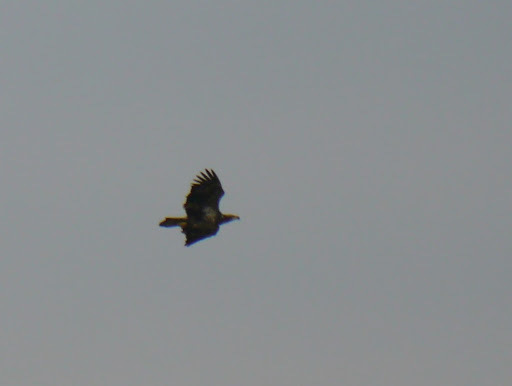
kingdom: Animalia
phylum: Chordata
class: Aves
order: Accipitriformes
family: Accipitridae
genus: Haliaeetus
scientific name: Haliaeetus leucocephalus
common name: Bald eagle
